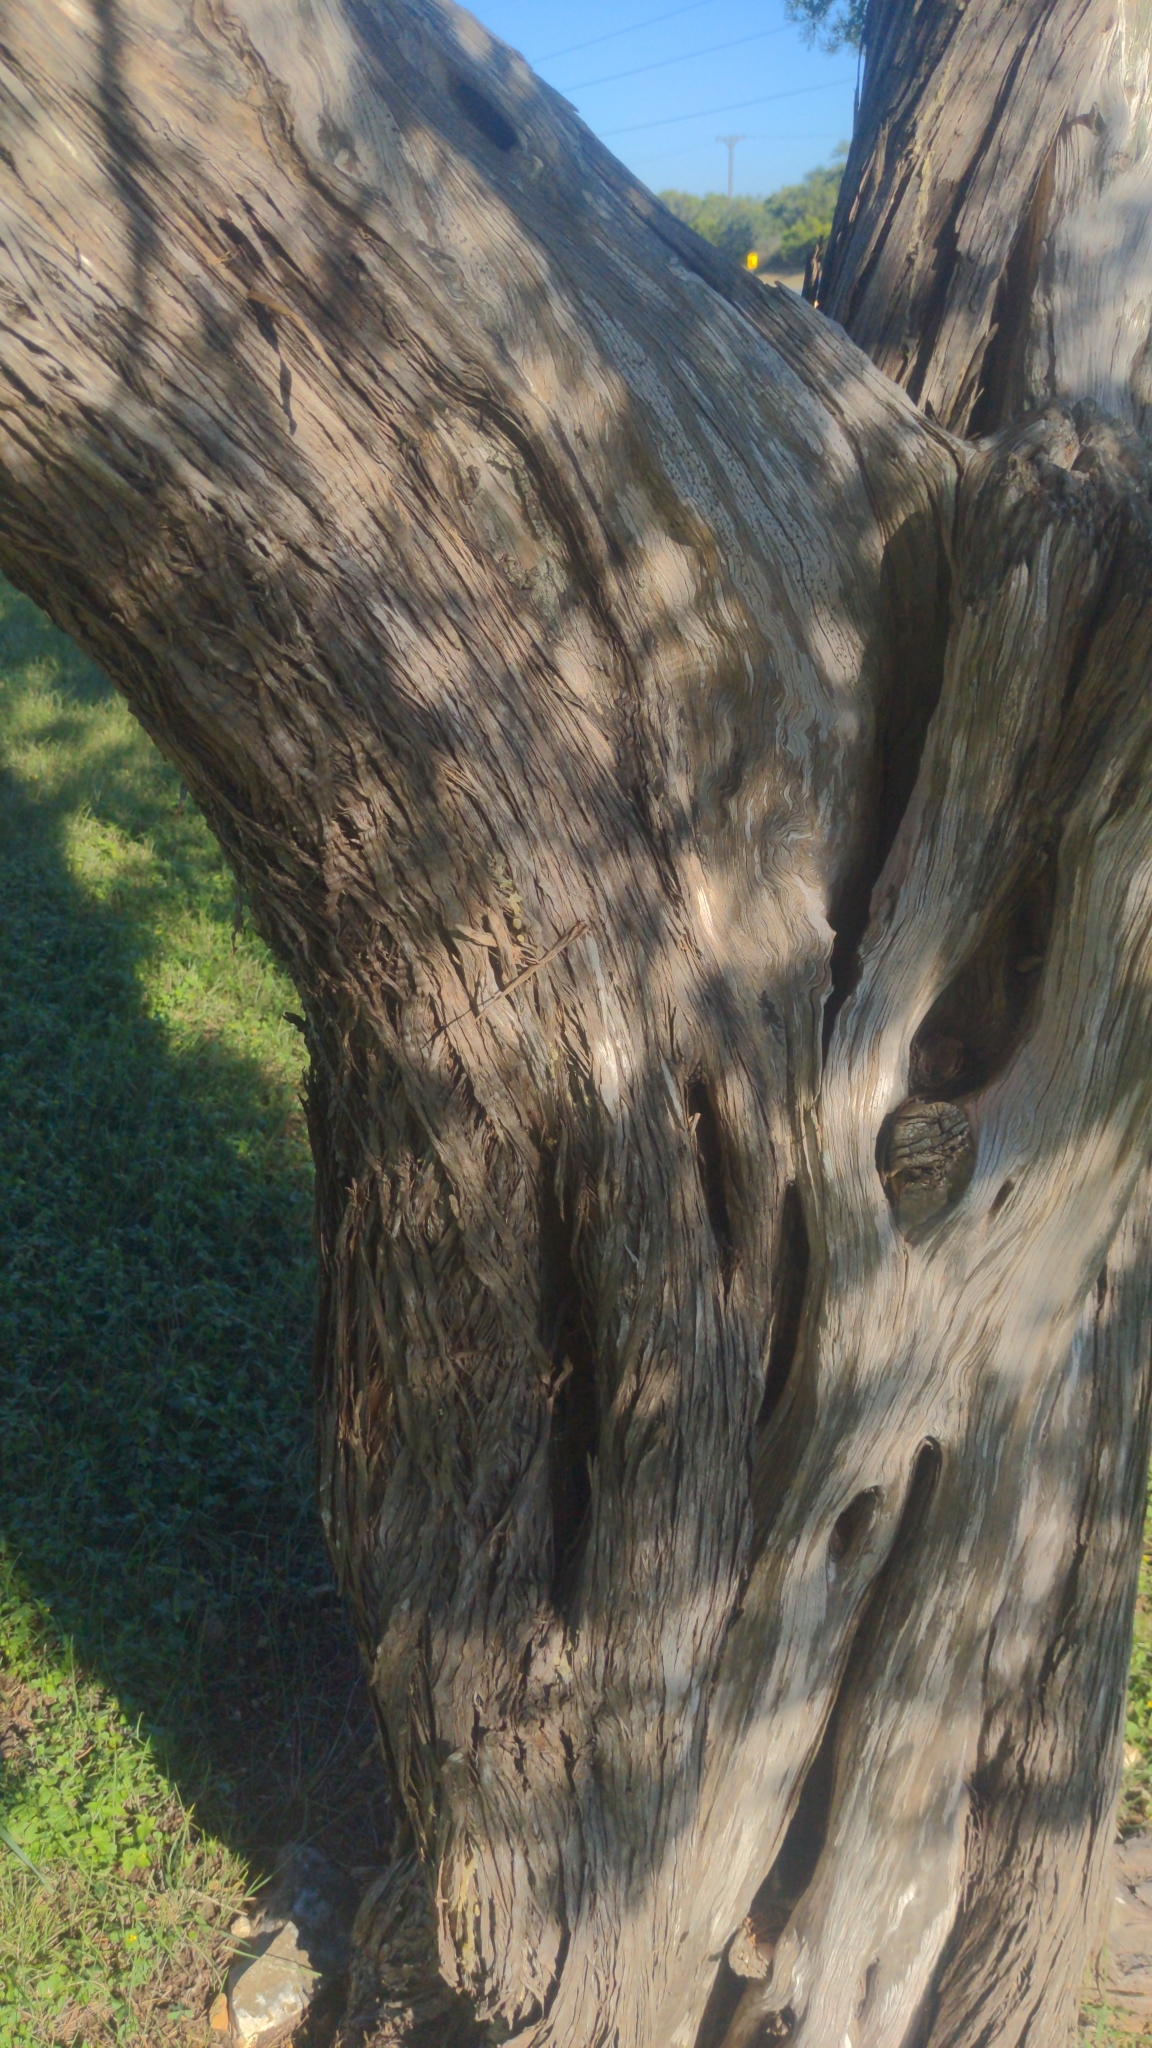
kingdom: Plantae
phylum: Tracheophyta
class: Pinopsida
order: Pinales
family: Cupressaceae
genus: Juniperus
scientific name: Juniperus ashei
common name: Mexican juniper
